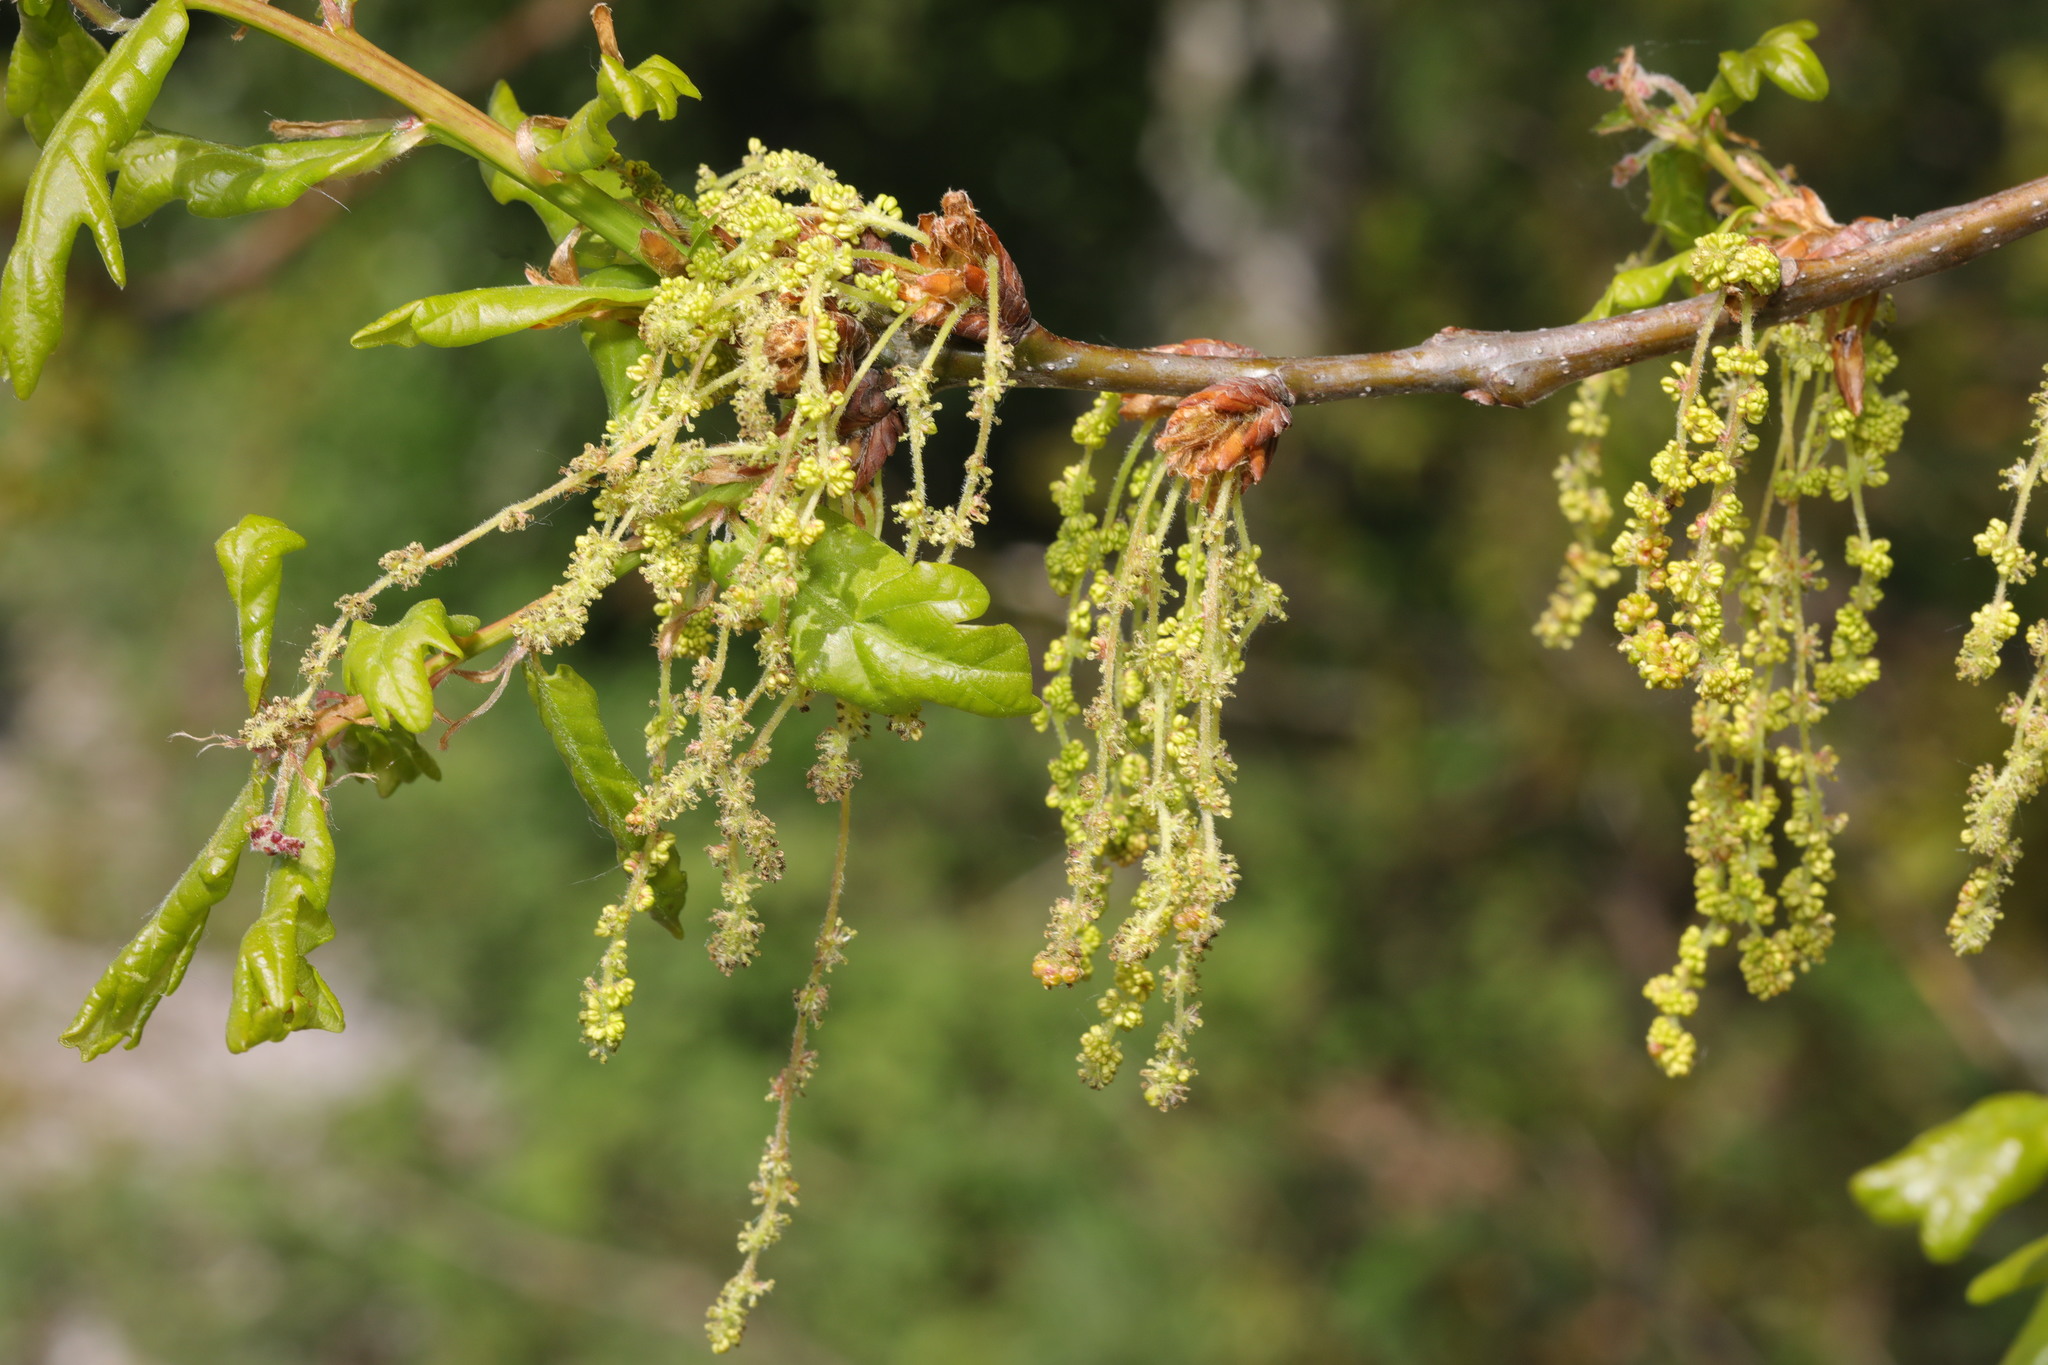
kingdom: Plantae
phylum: Tracheophyta
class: Magnoliopsida
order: Fagales
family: Fagaceae
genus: Quercus
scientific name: Quercus robur
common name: Pedunculate oak
